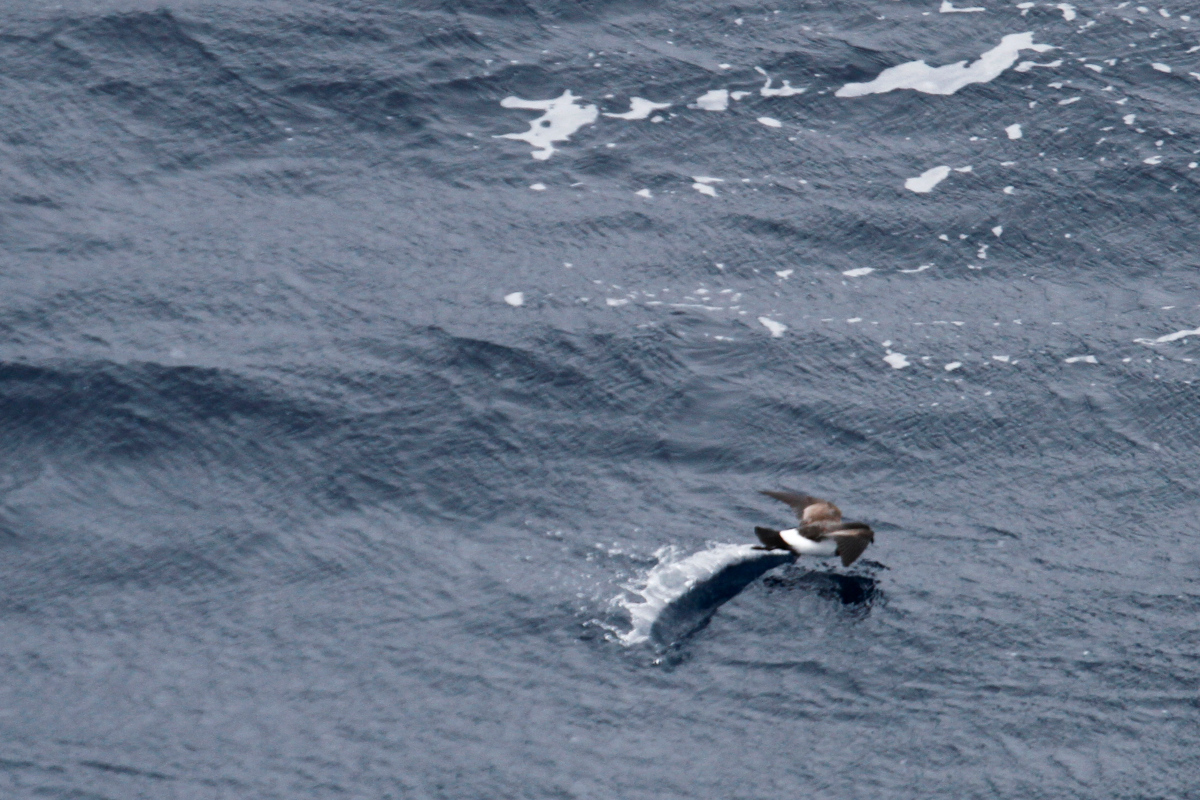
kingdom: Animalia
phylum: Chordata
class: Aves
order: Procellariiformes
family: Hydrobatidae
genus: Oceanites
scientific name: Oceanites oceanicus
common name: Wilson's storm petrel
